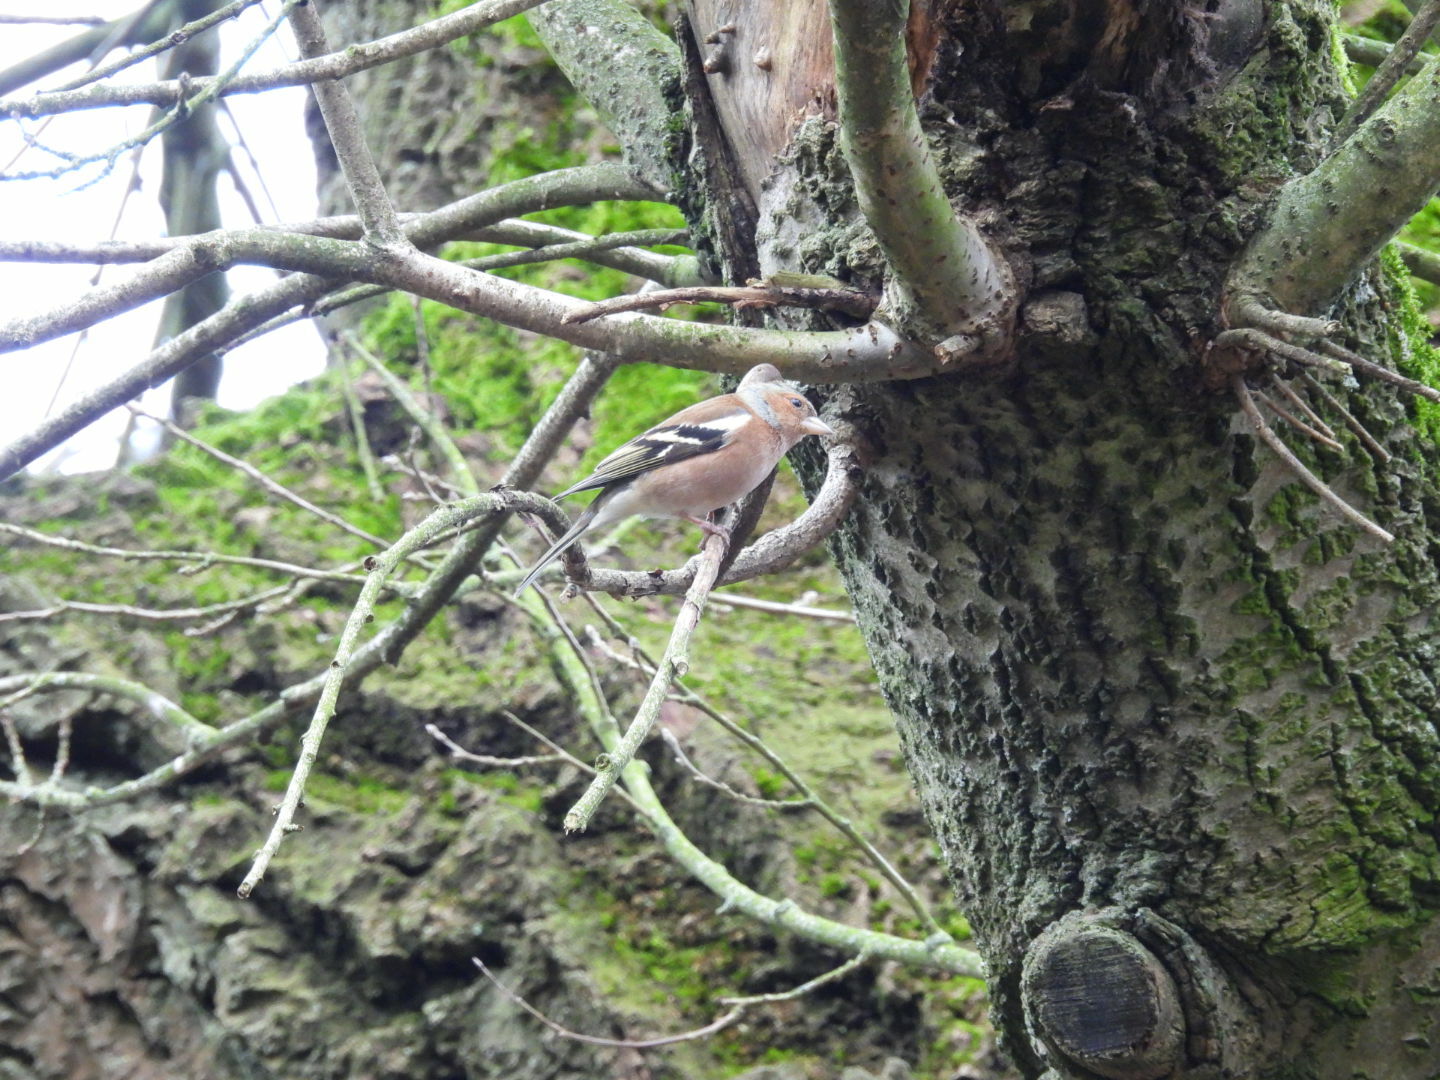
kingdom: Animalia
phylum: Chordata
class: Aves
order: Passeriformes
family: Fringillidae
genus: Fringilla
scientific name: Fringilla coelebs
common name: Common chaffinch
